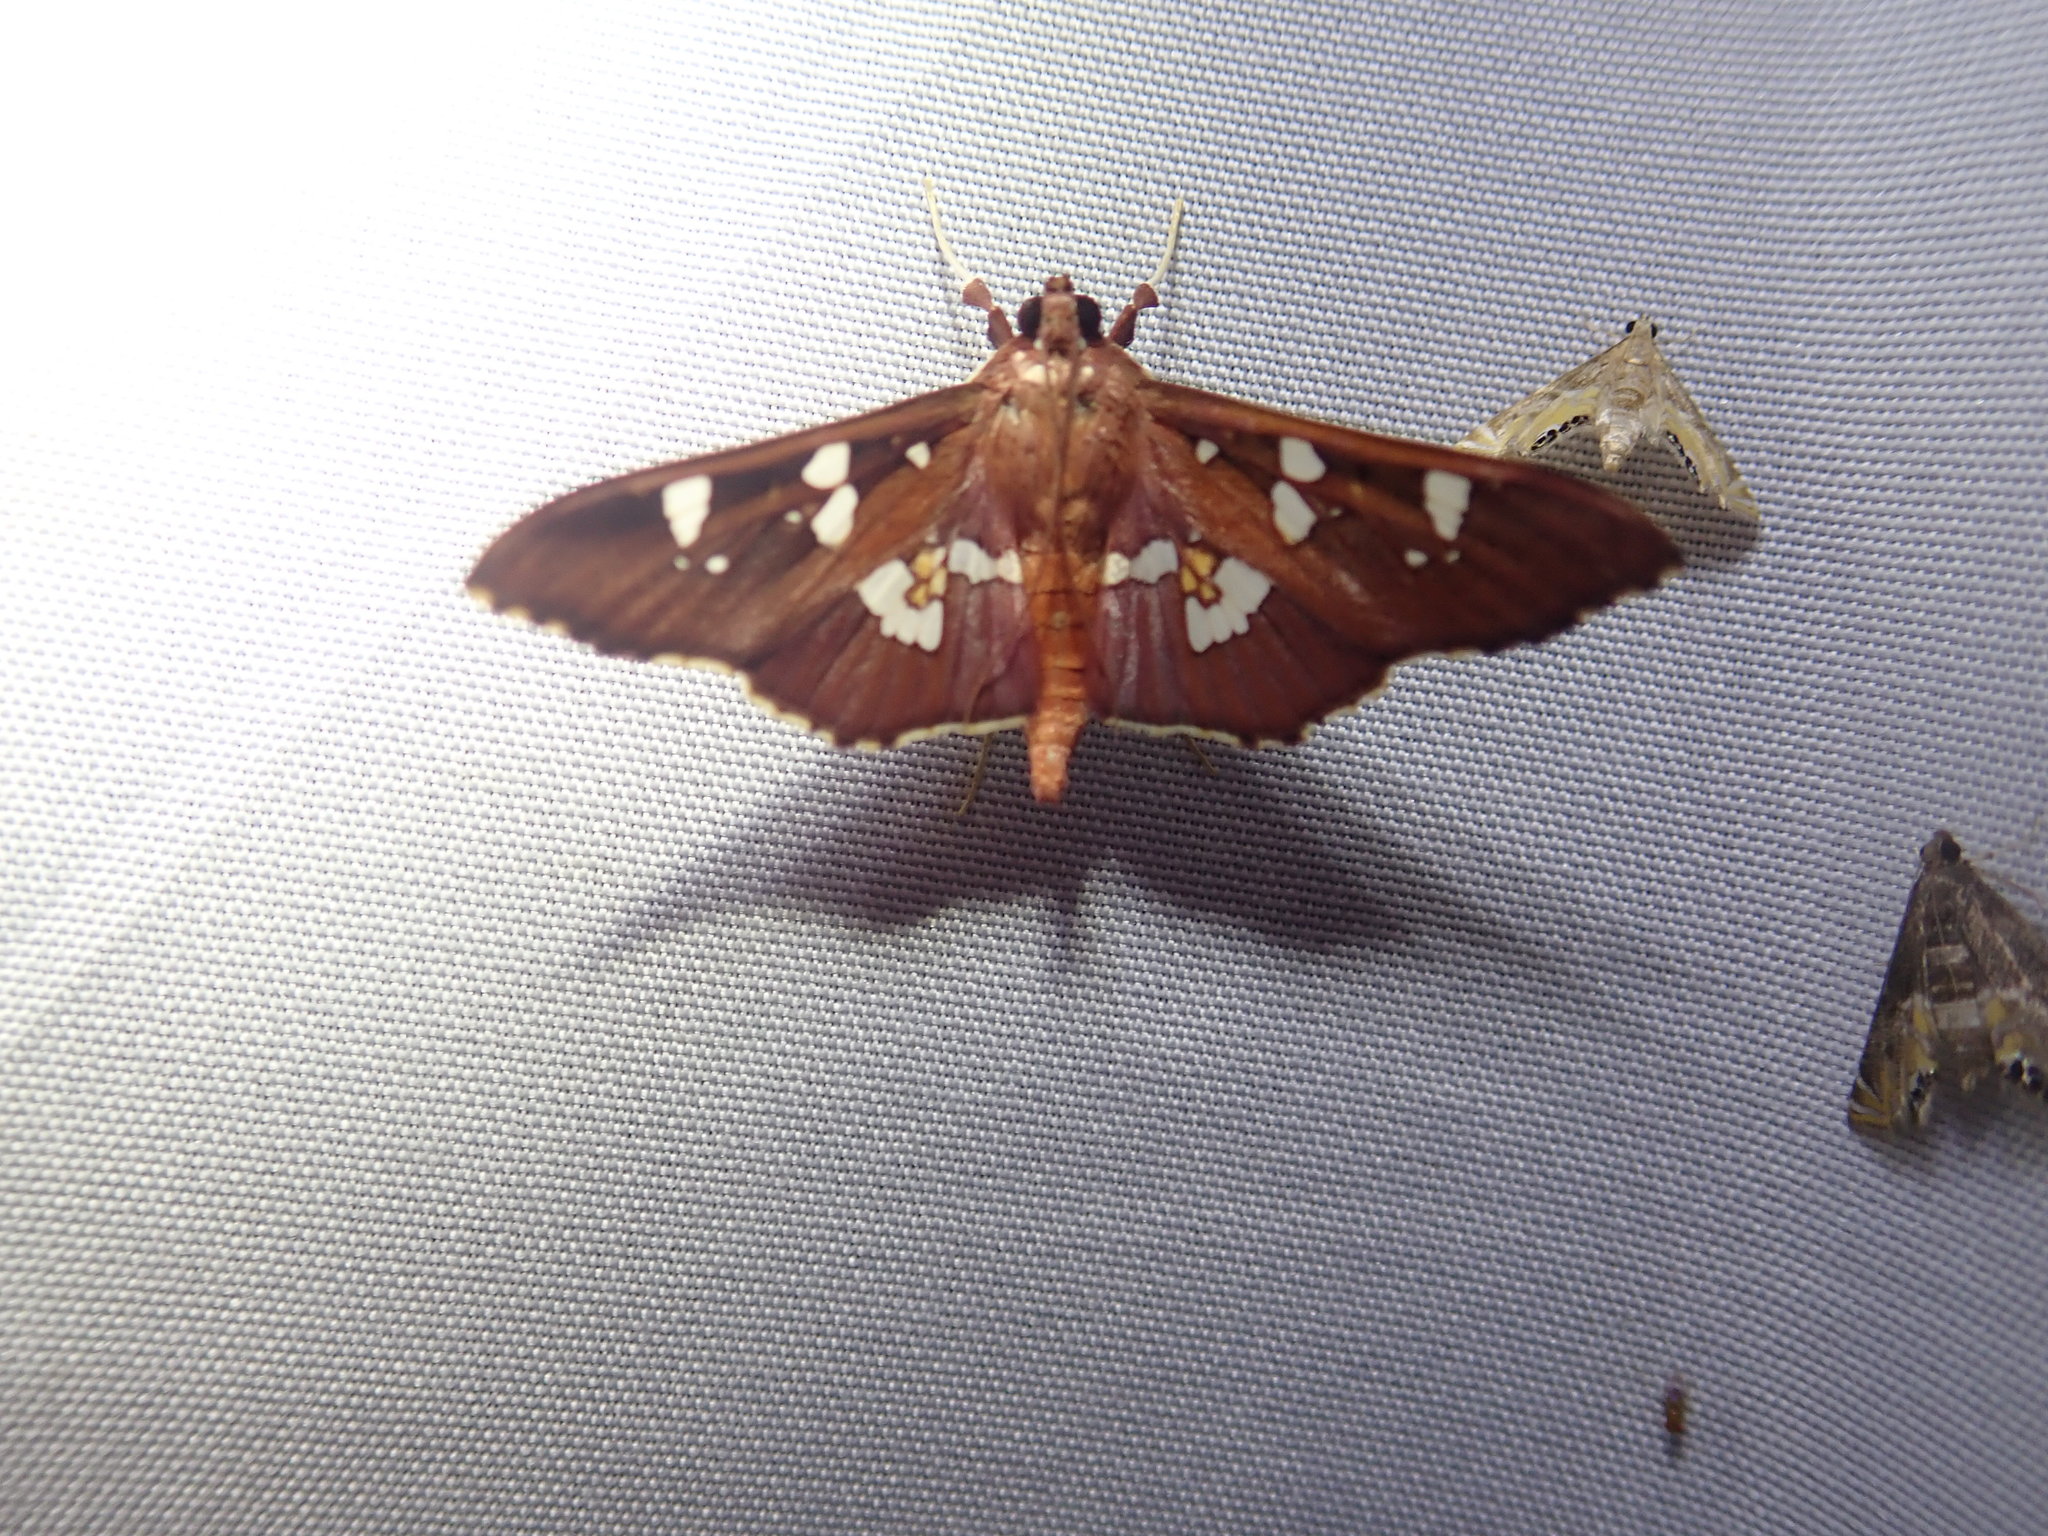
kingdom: Animalia
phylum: Arthropoda
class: Insecta
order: Lepidoptera
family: Crambidae
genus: Phostria
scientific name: Phostria temira
